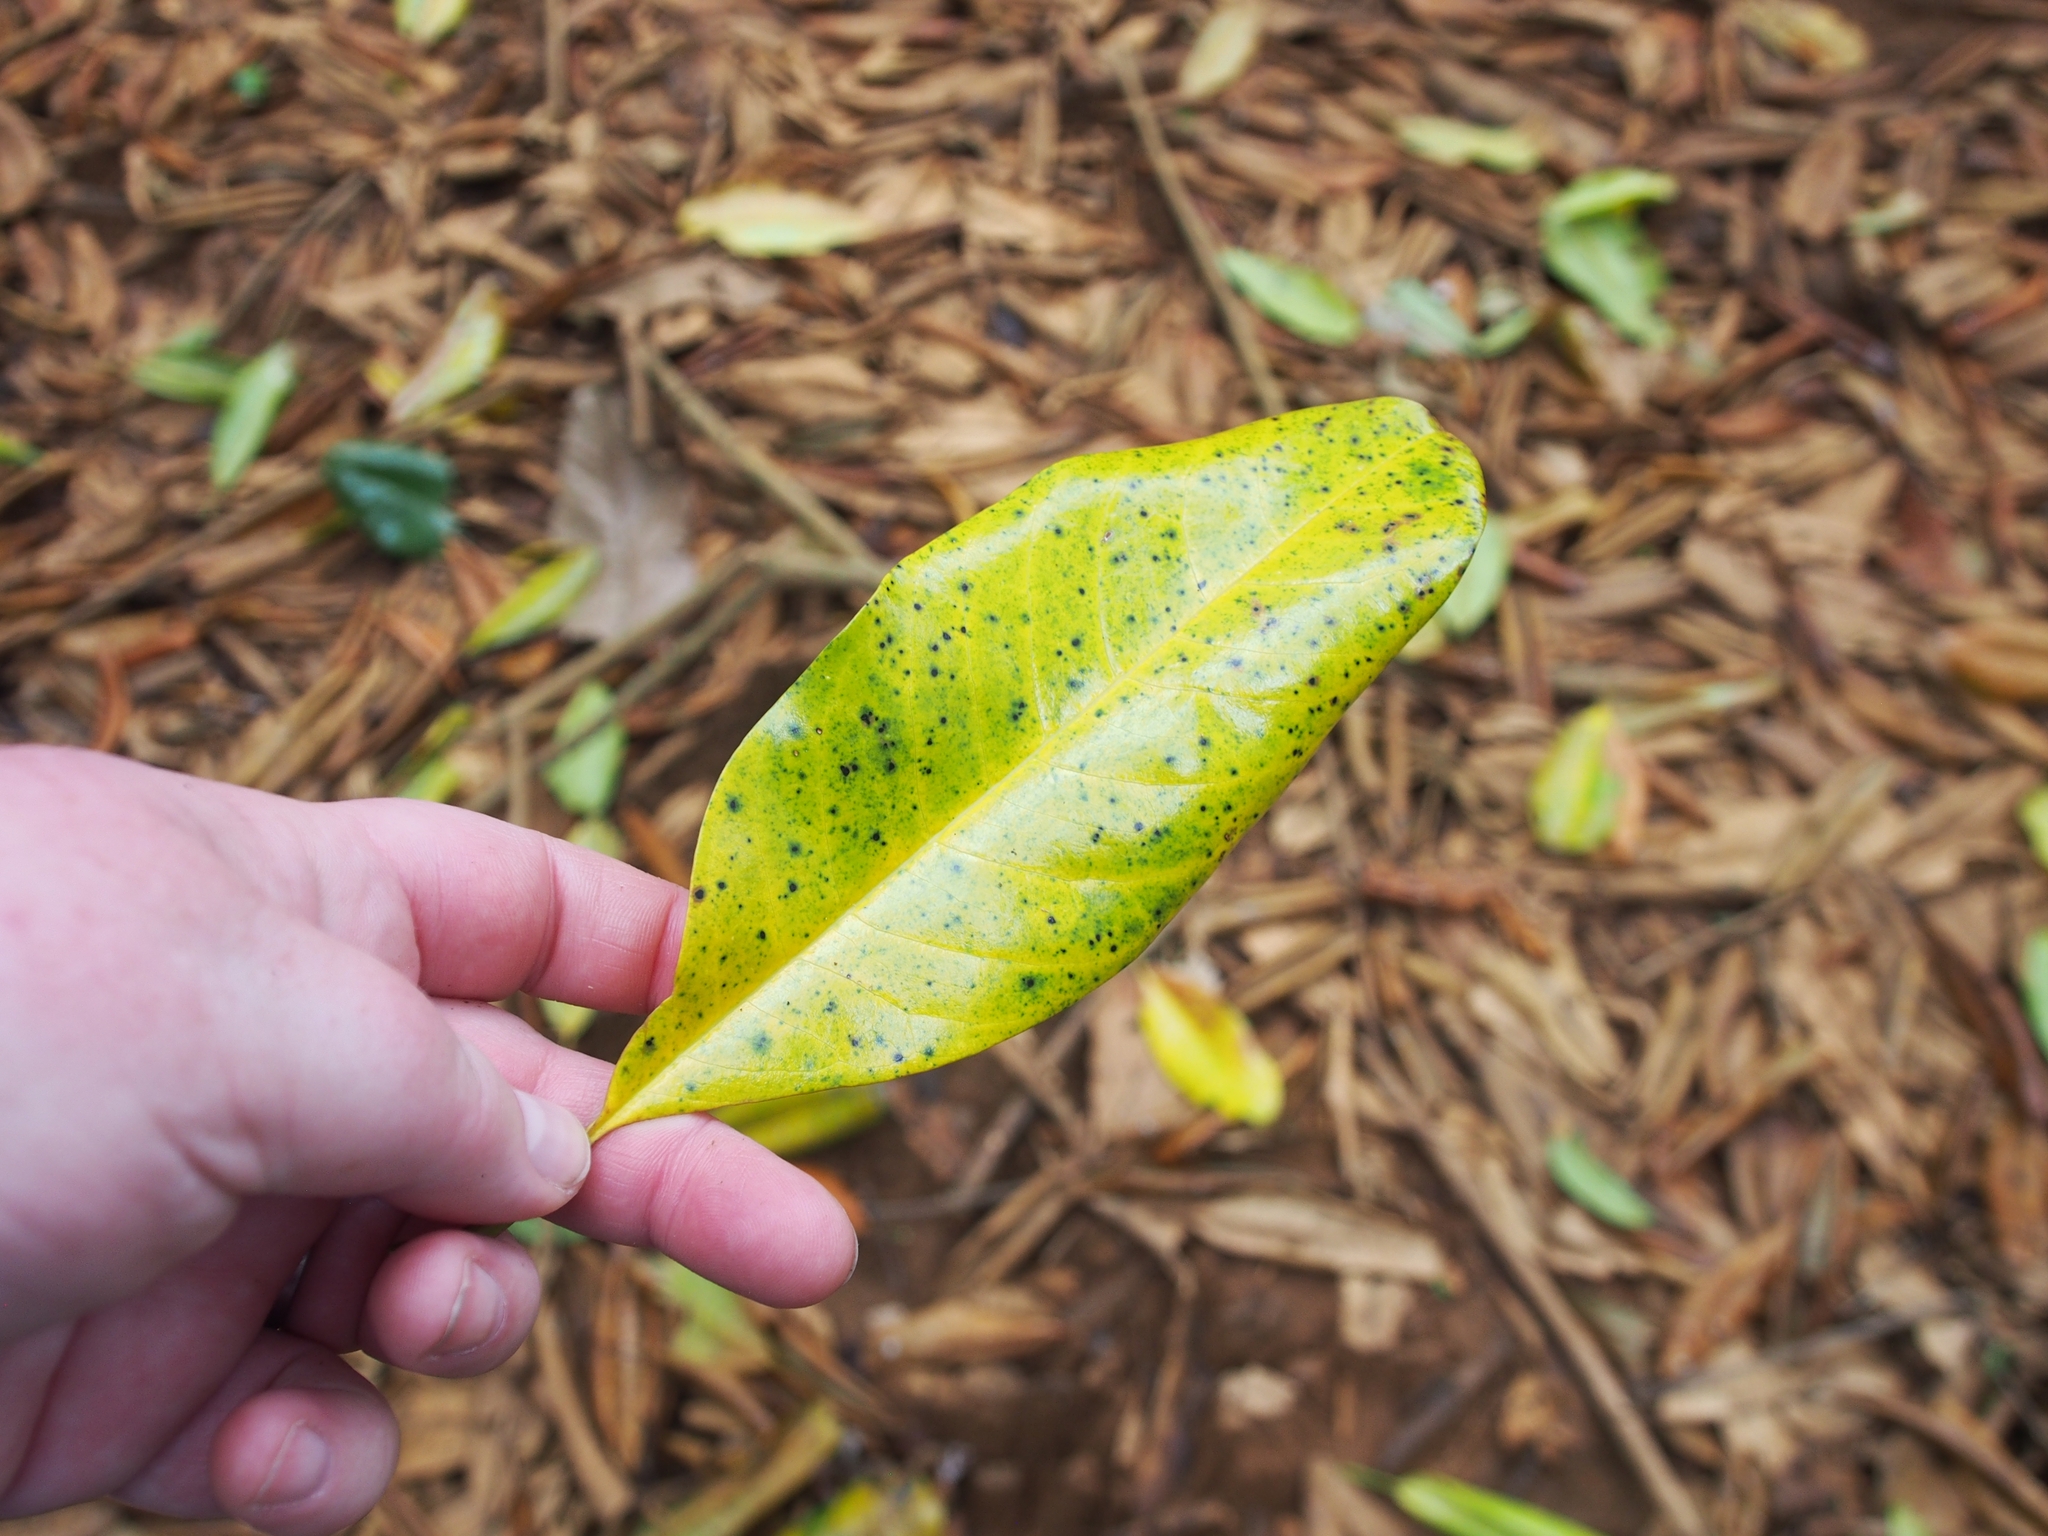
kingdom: Plantae
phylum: Tracheophyta
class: Magnoliopsida
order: Myrtales
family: Vochysiaceae
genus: Vochysia
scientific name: Vochysia guatemalensis
